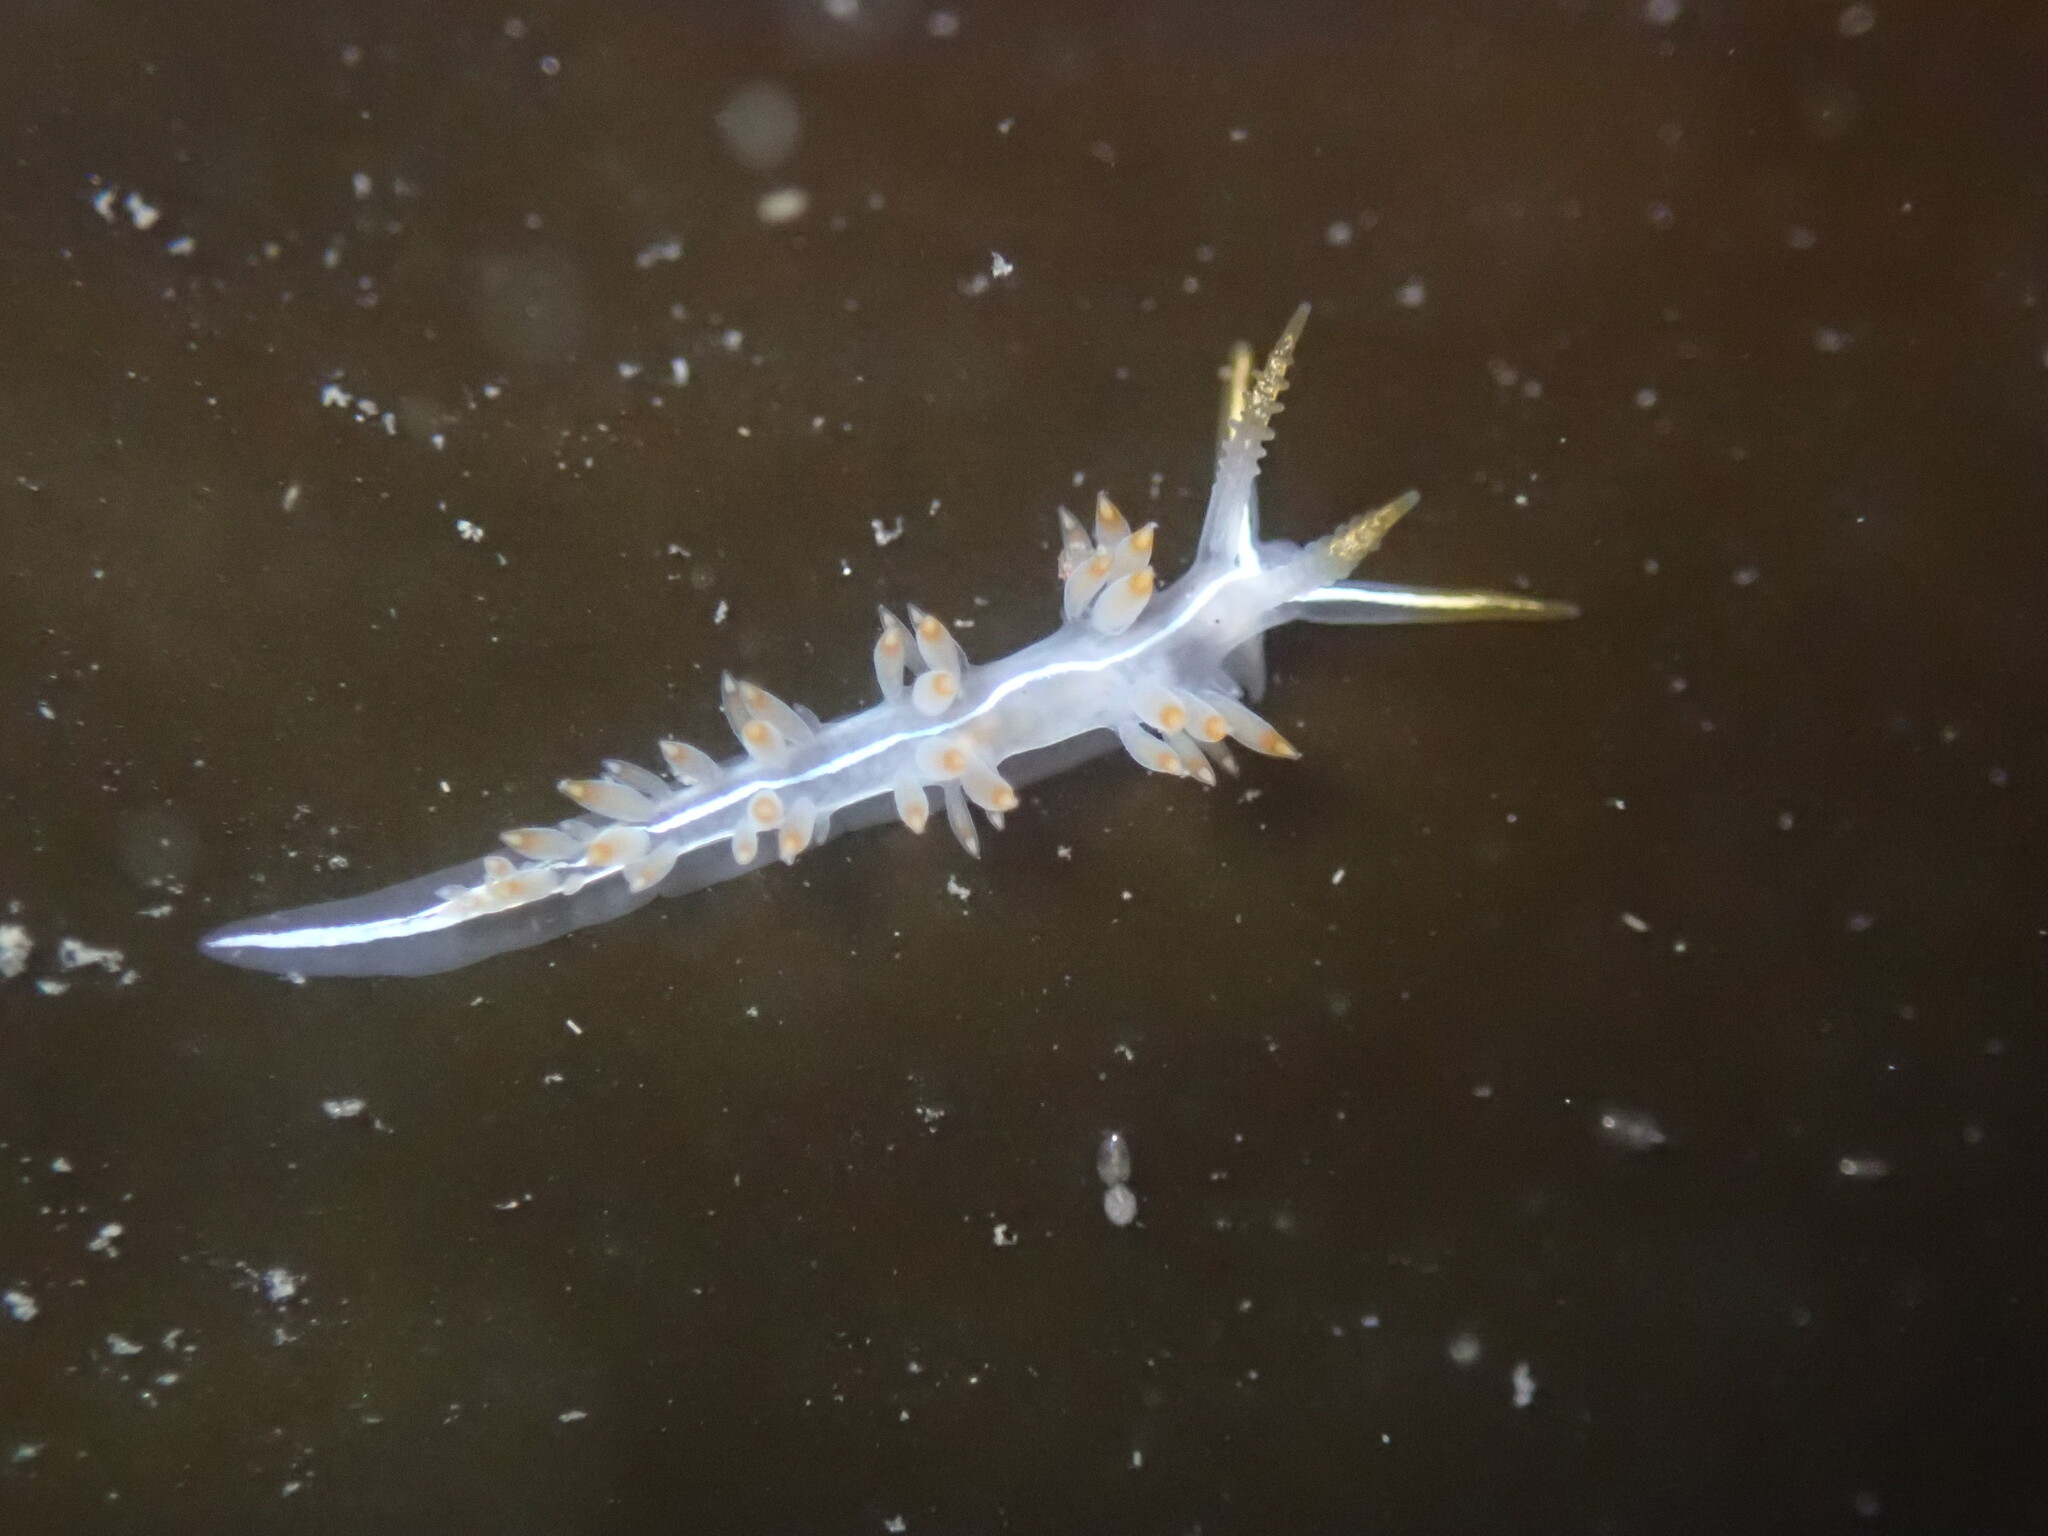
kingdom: Animalia
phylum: Mollusca
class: Gastropoda
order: Nudibranchia
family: Coryphellidae
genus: Coryphella
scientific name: Coryphella trilineata
